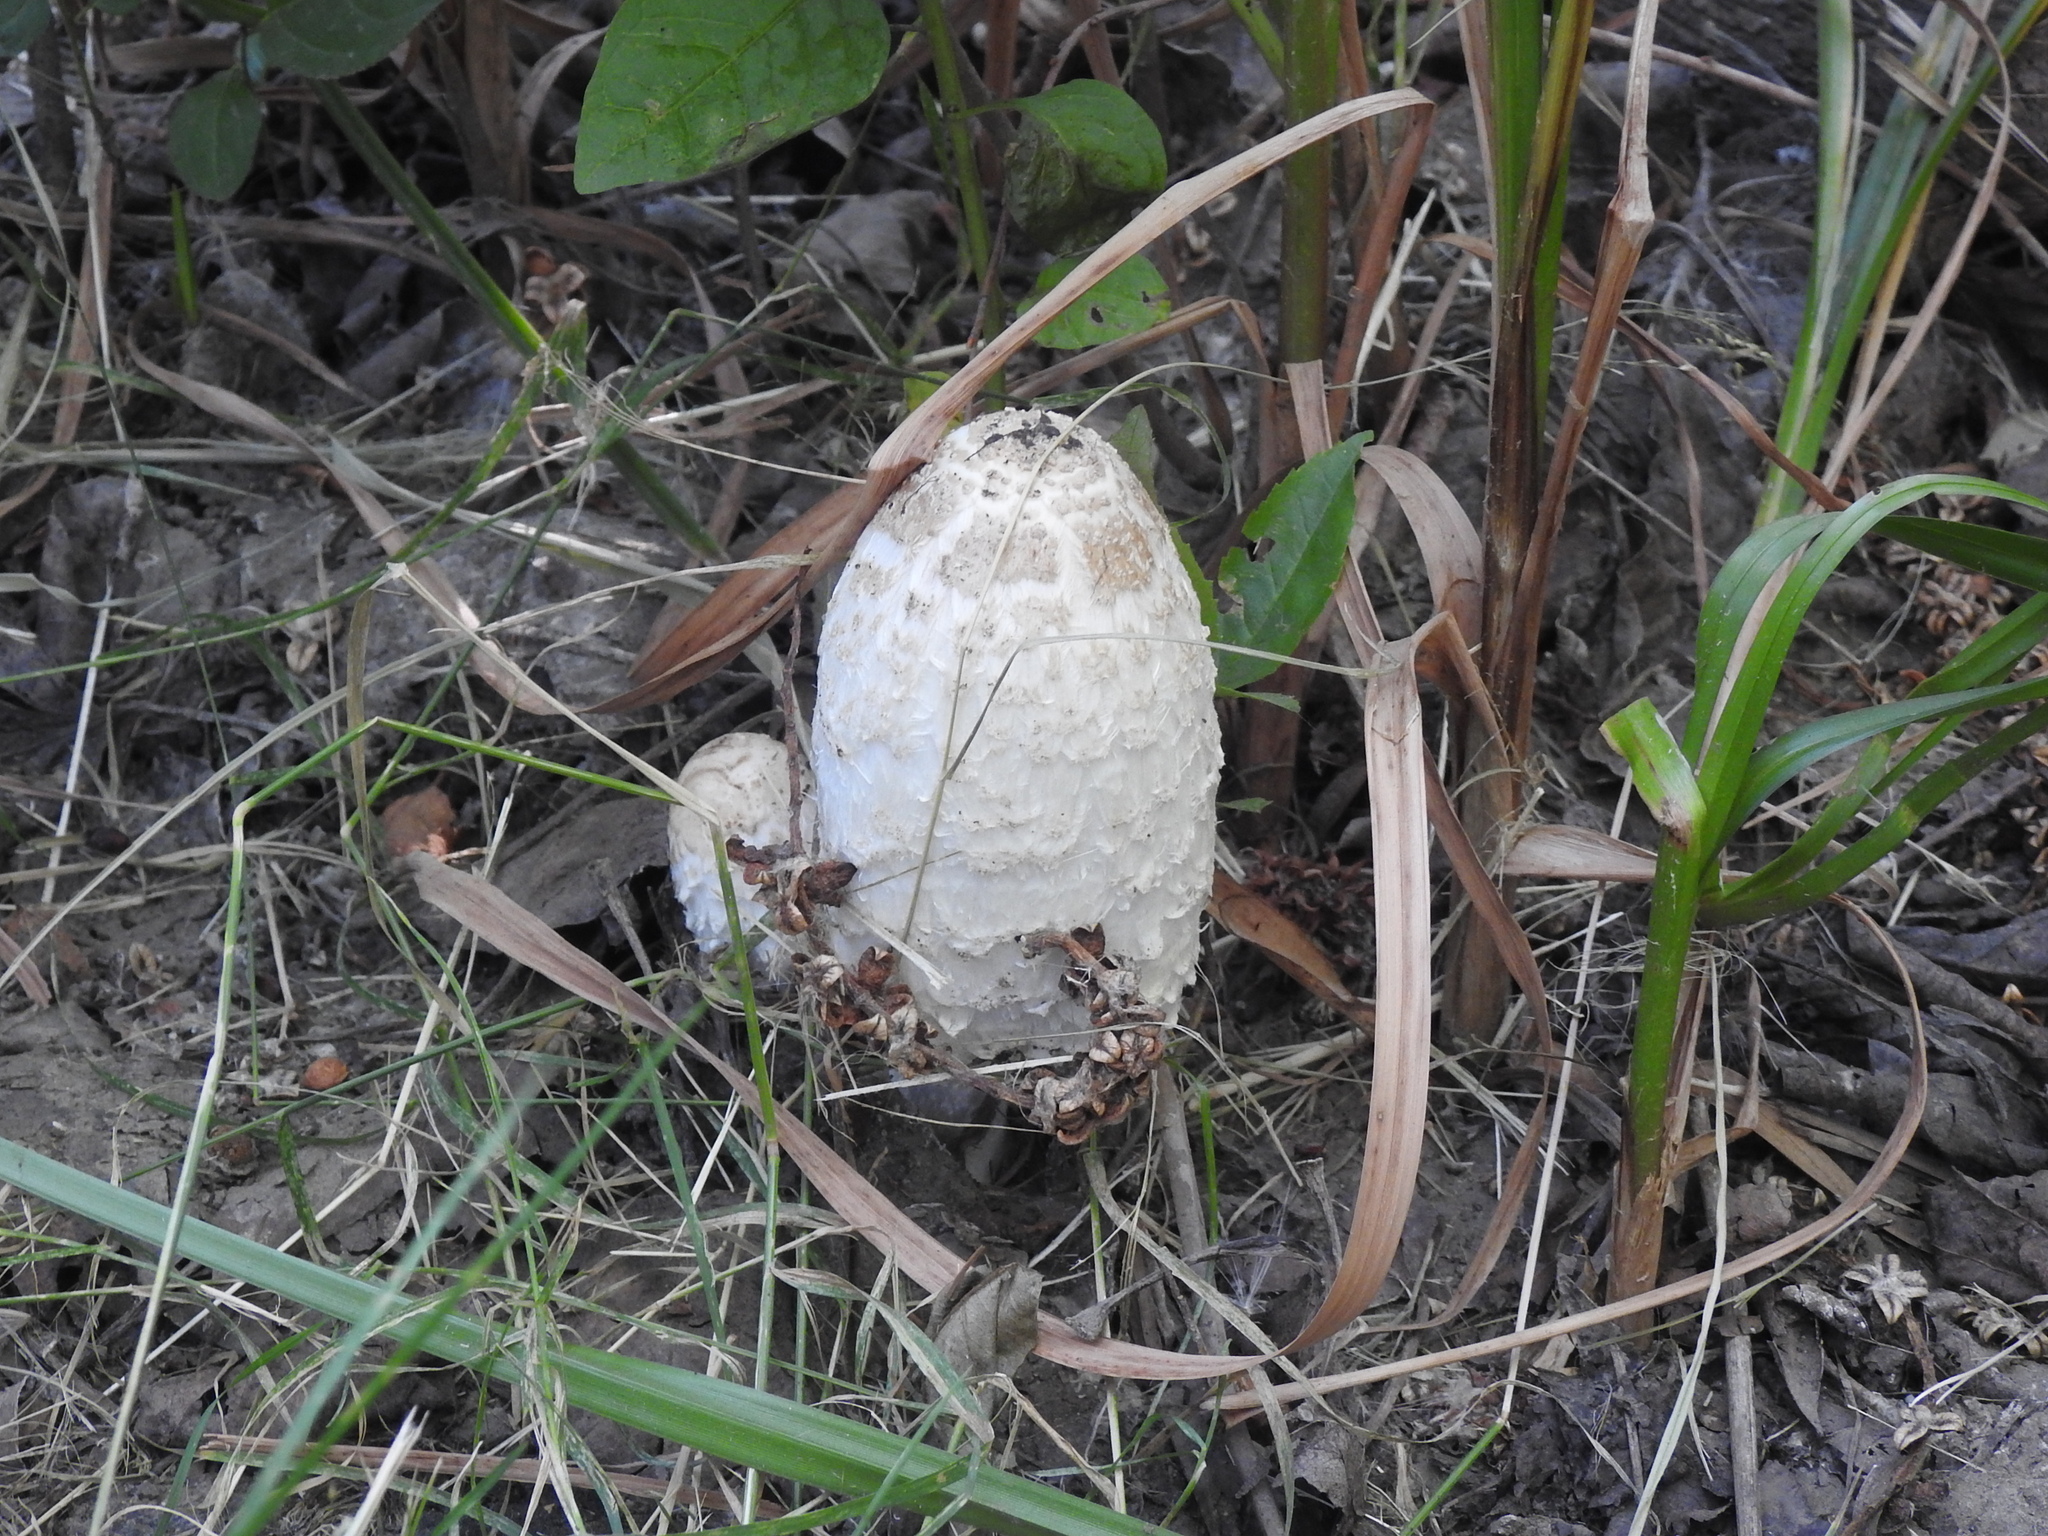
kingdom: Fungi
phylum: Basidiomycota
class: Agaricomycetes
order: Agaricales
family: Agaricaceae
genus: Coprinus
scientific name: Coprinus comatus
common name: Lawyer's wig
